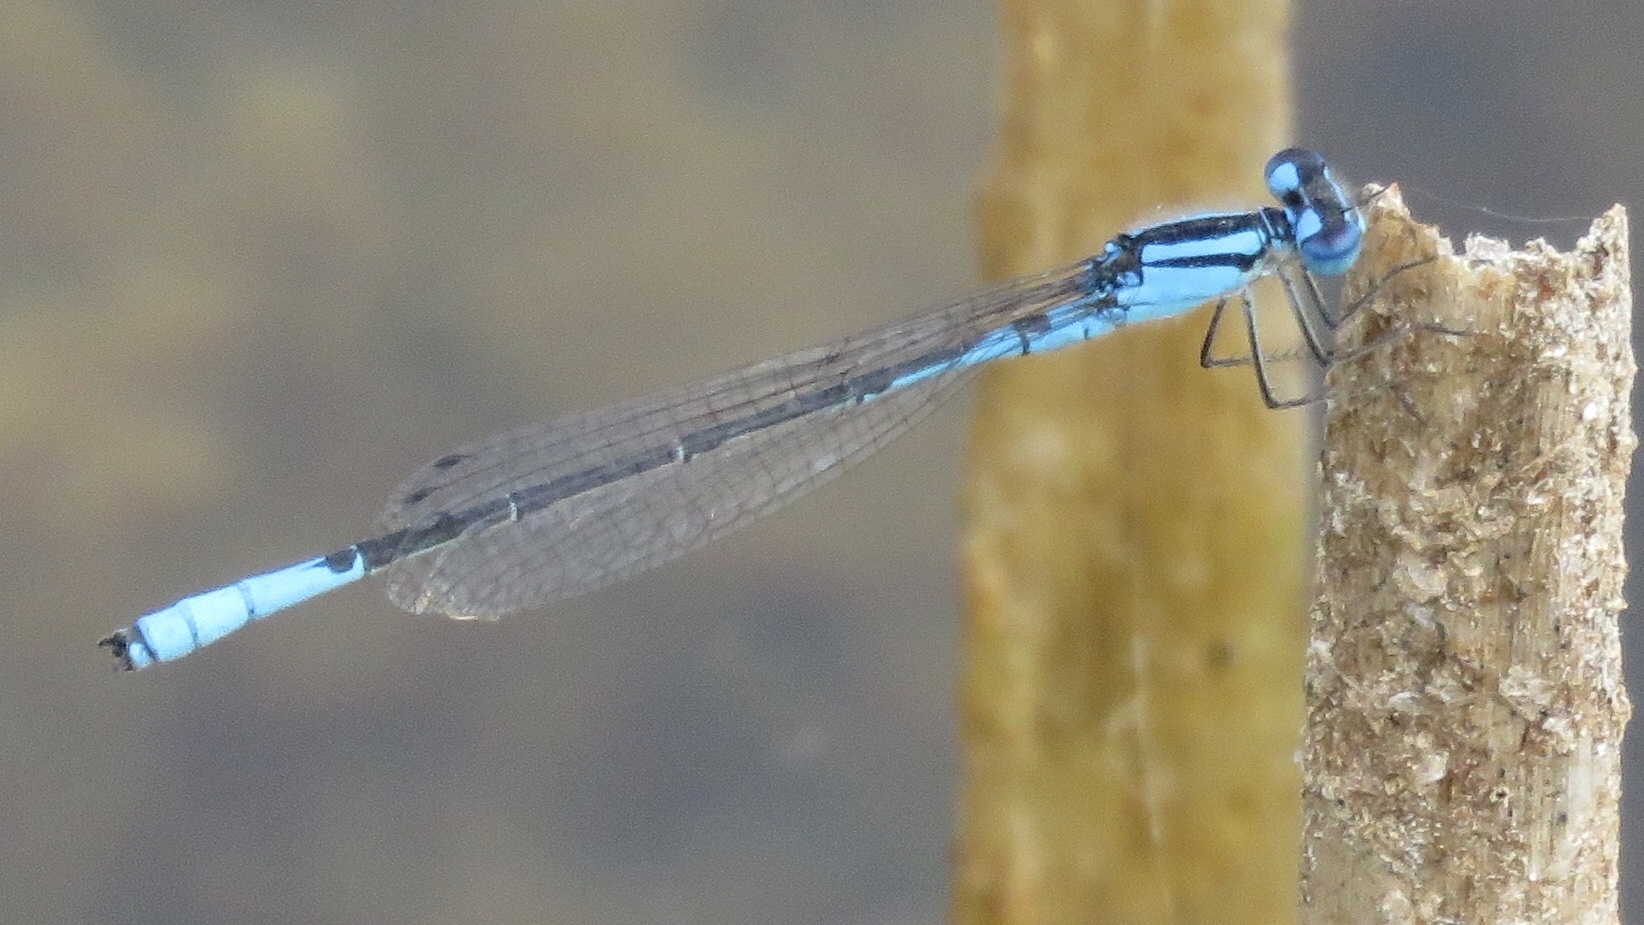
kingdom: Animalia
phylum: Arthropoda
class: Insecta
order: Odonata
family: Coenagrionidae
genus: Enallagma
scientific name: Enallagma aspersum
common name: Azure bluet
